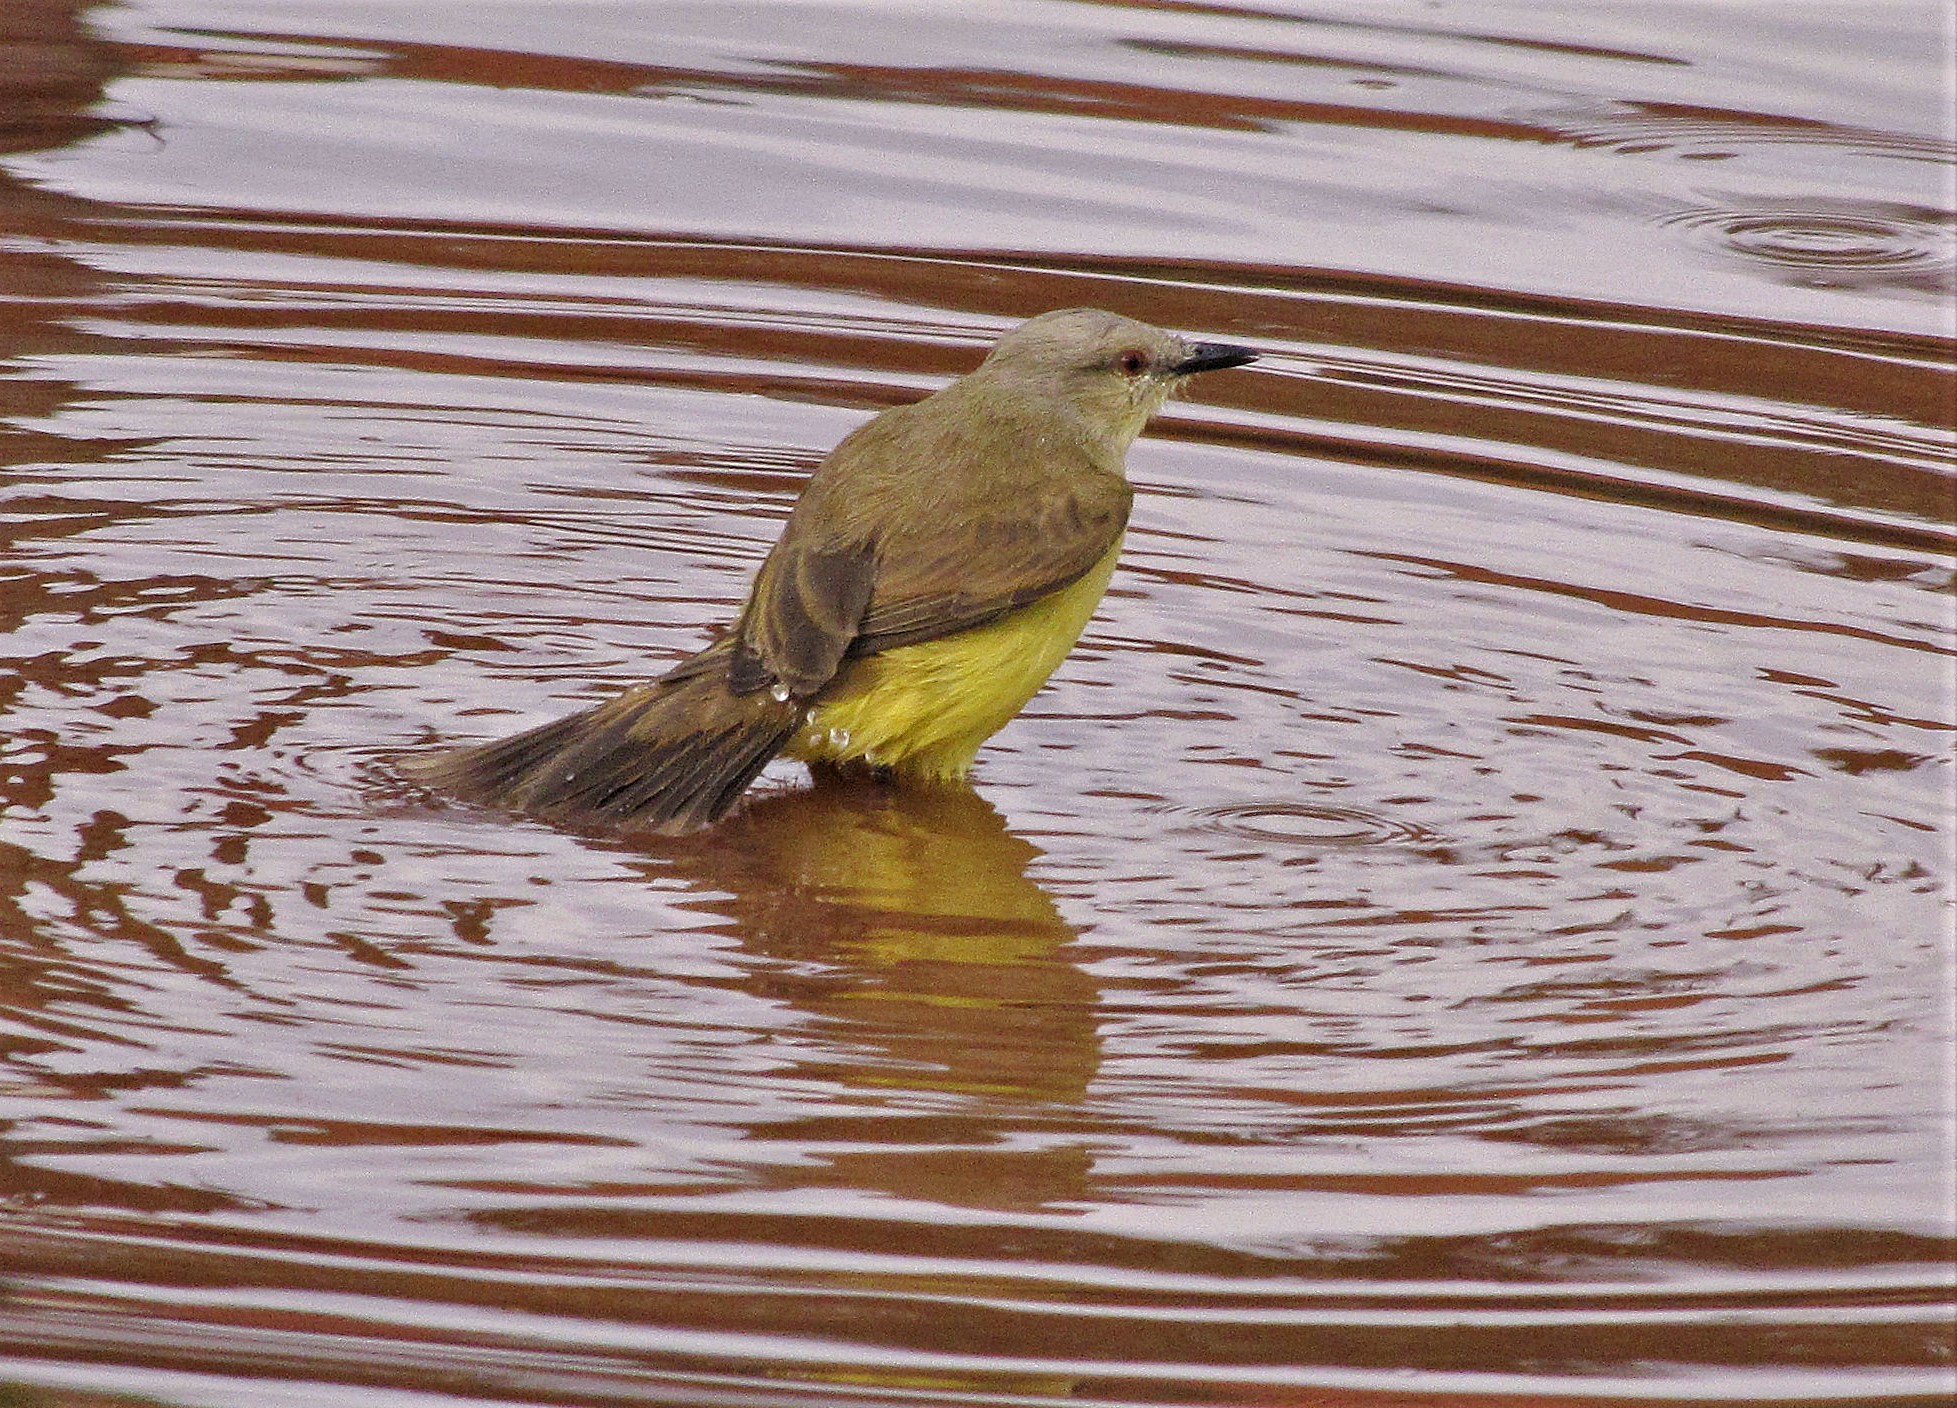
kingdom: Animalia
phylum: Chordata
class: Aves
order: Passeriformes
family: Tyrannidae
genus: Machetornis
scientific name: Machetornis rixosa
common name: Cattle tyrant
